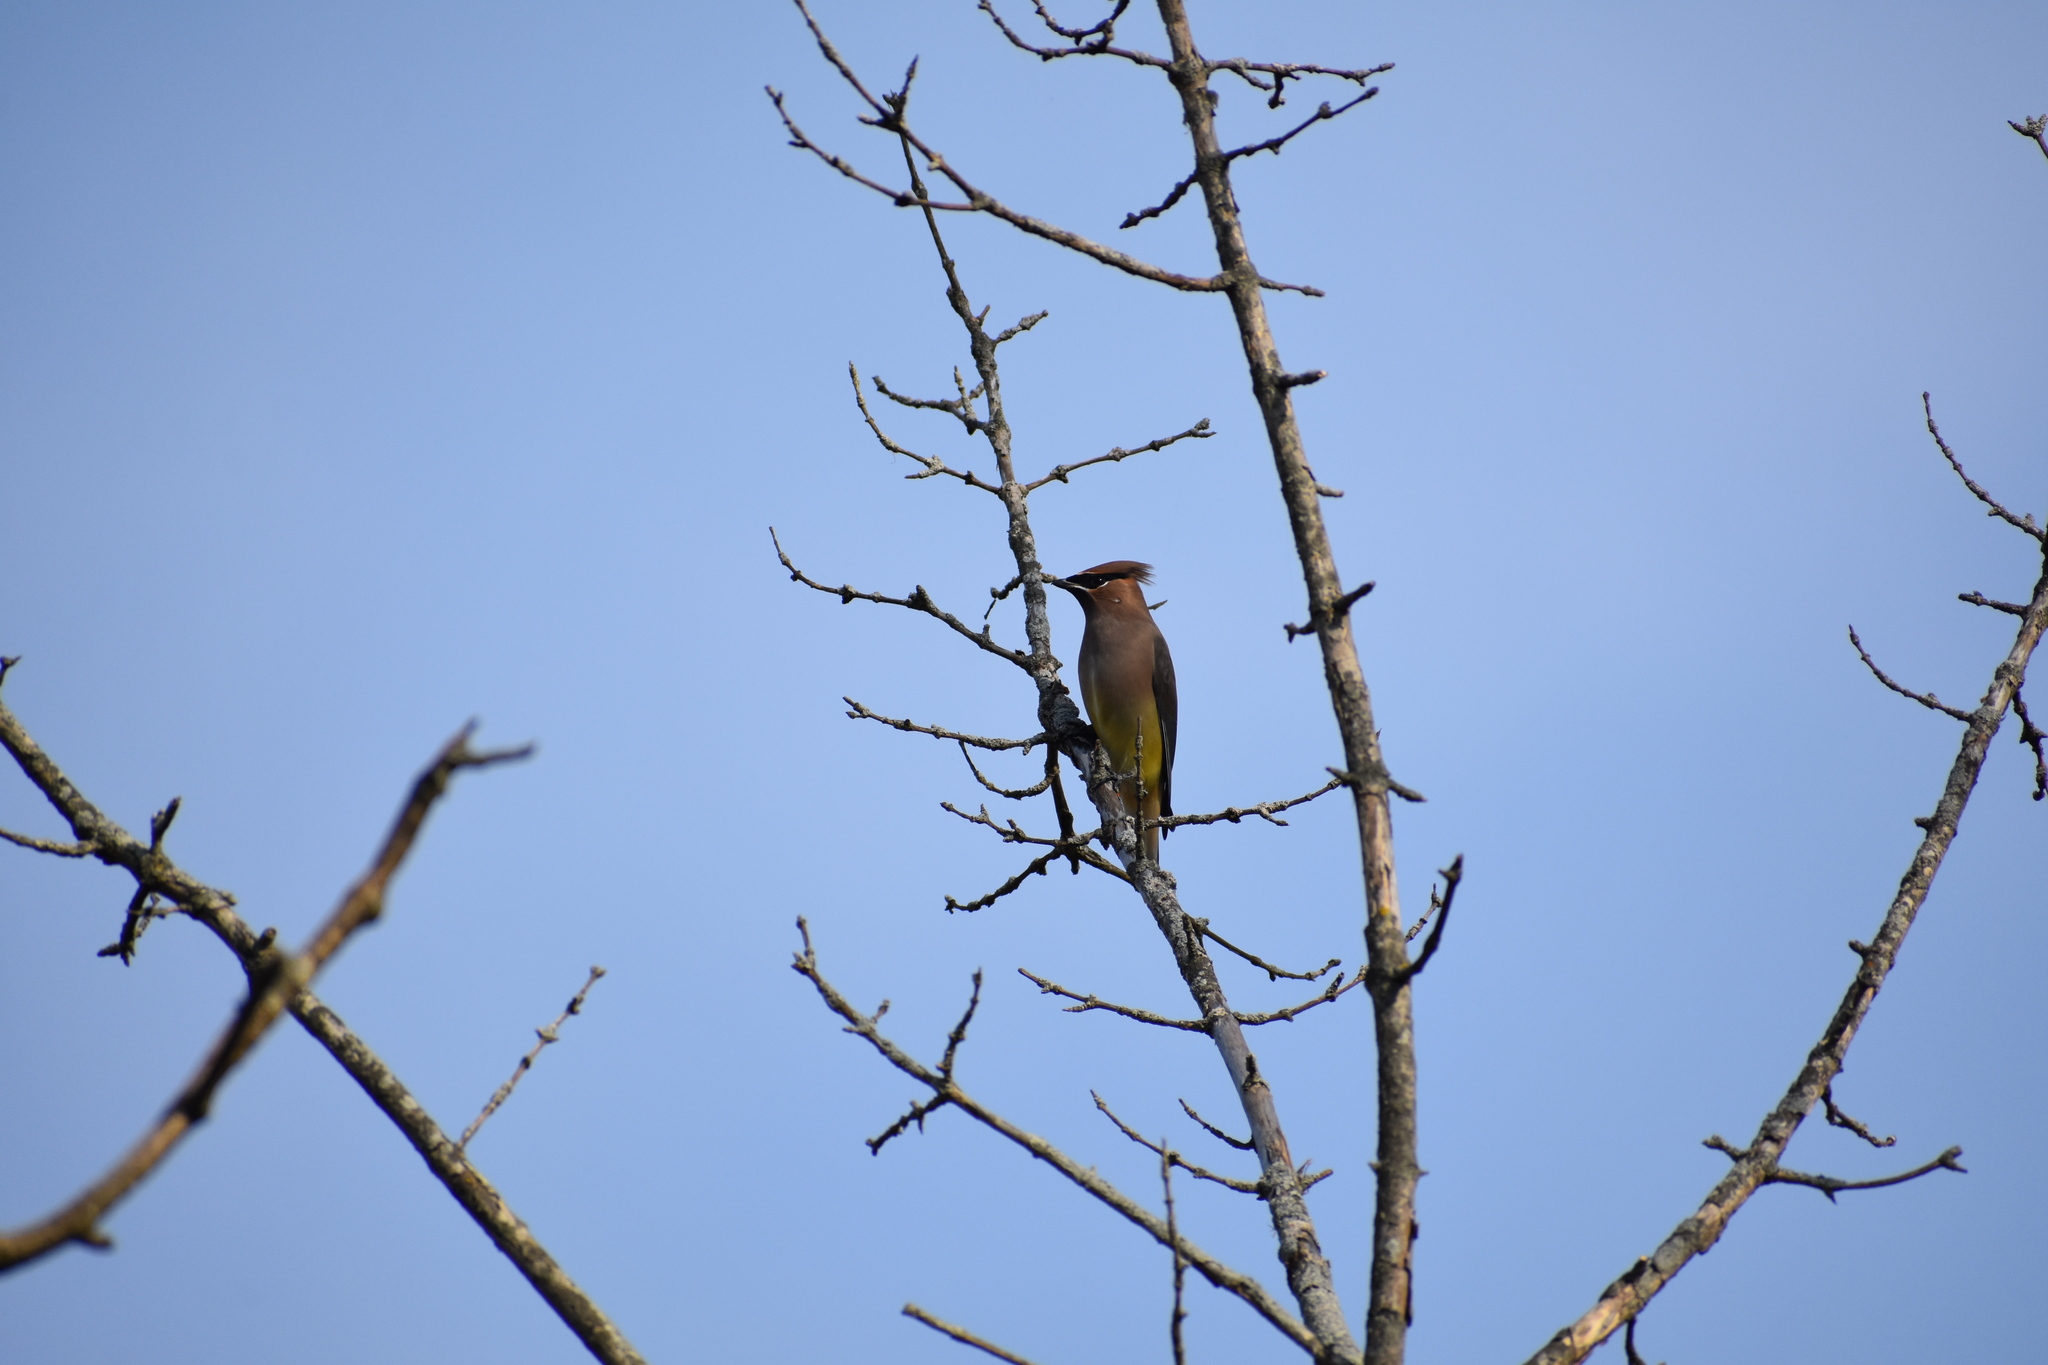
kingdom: Animalia
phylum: Chordata
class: Aves
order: Passeriformes
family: Bombycillidae
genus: Bombycilla
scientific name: Bombycilla cedrorum
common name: Cedar waxwing
